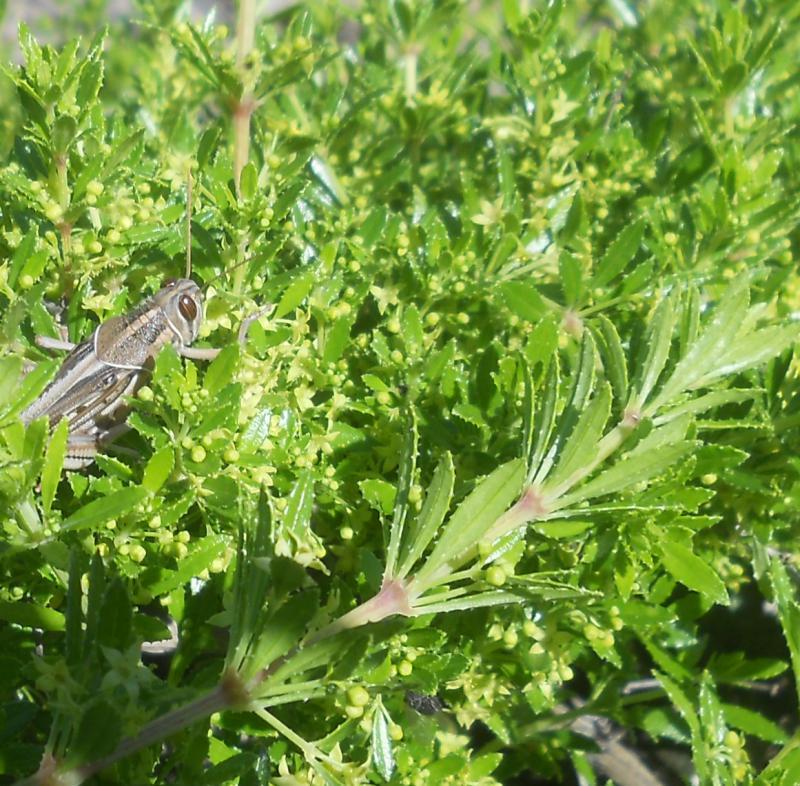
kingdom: Plantae
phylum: Tracheophyta
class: Magnoliopsida
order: Gentianales
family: Rubiaceae
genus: Rubia
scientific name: Rubia fruticosa
